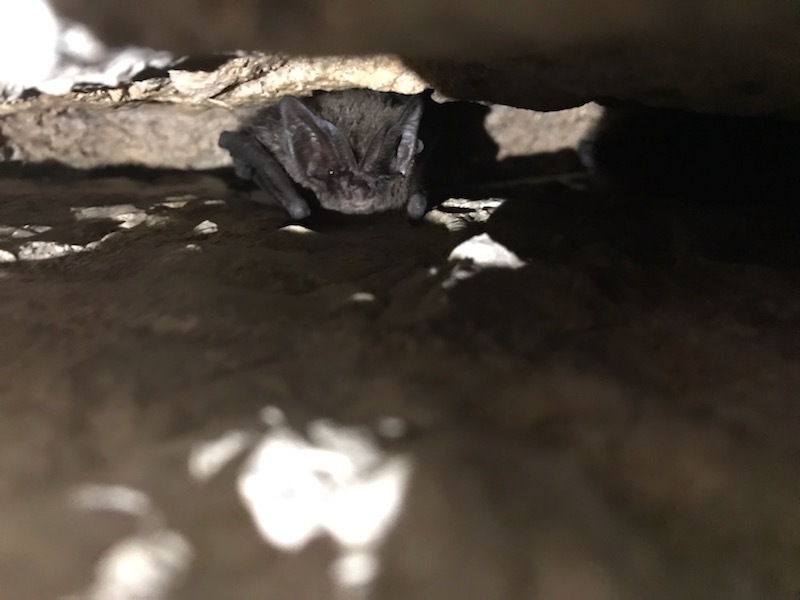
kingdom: Animalia
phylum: Chordata
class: Mammalia
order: Chiroptera
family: Vespertilionidae
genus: Barbastella
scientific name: Barbastella barbastellus
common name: Western barbastelle
